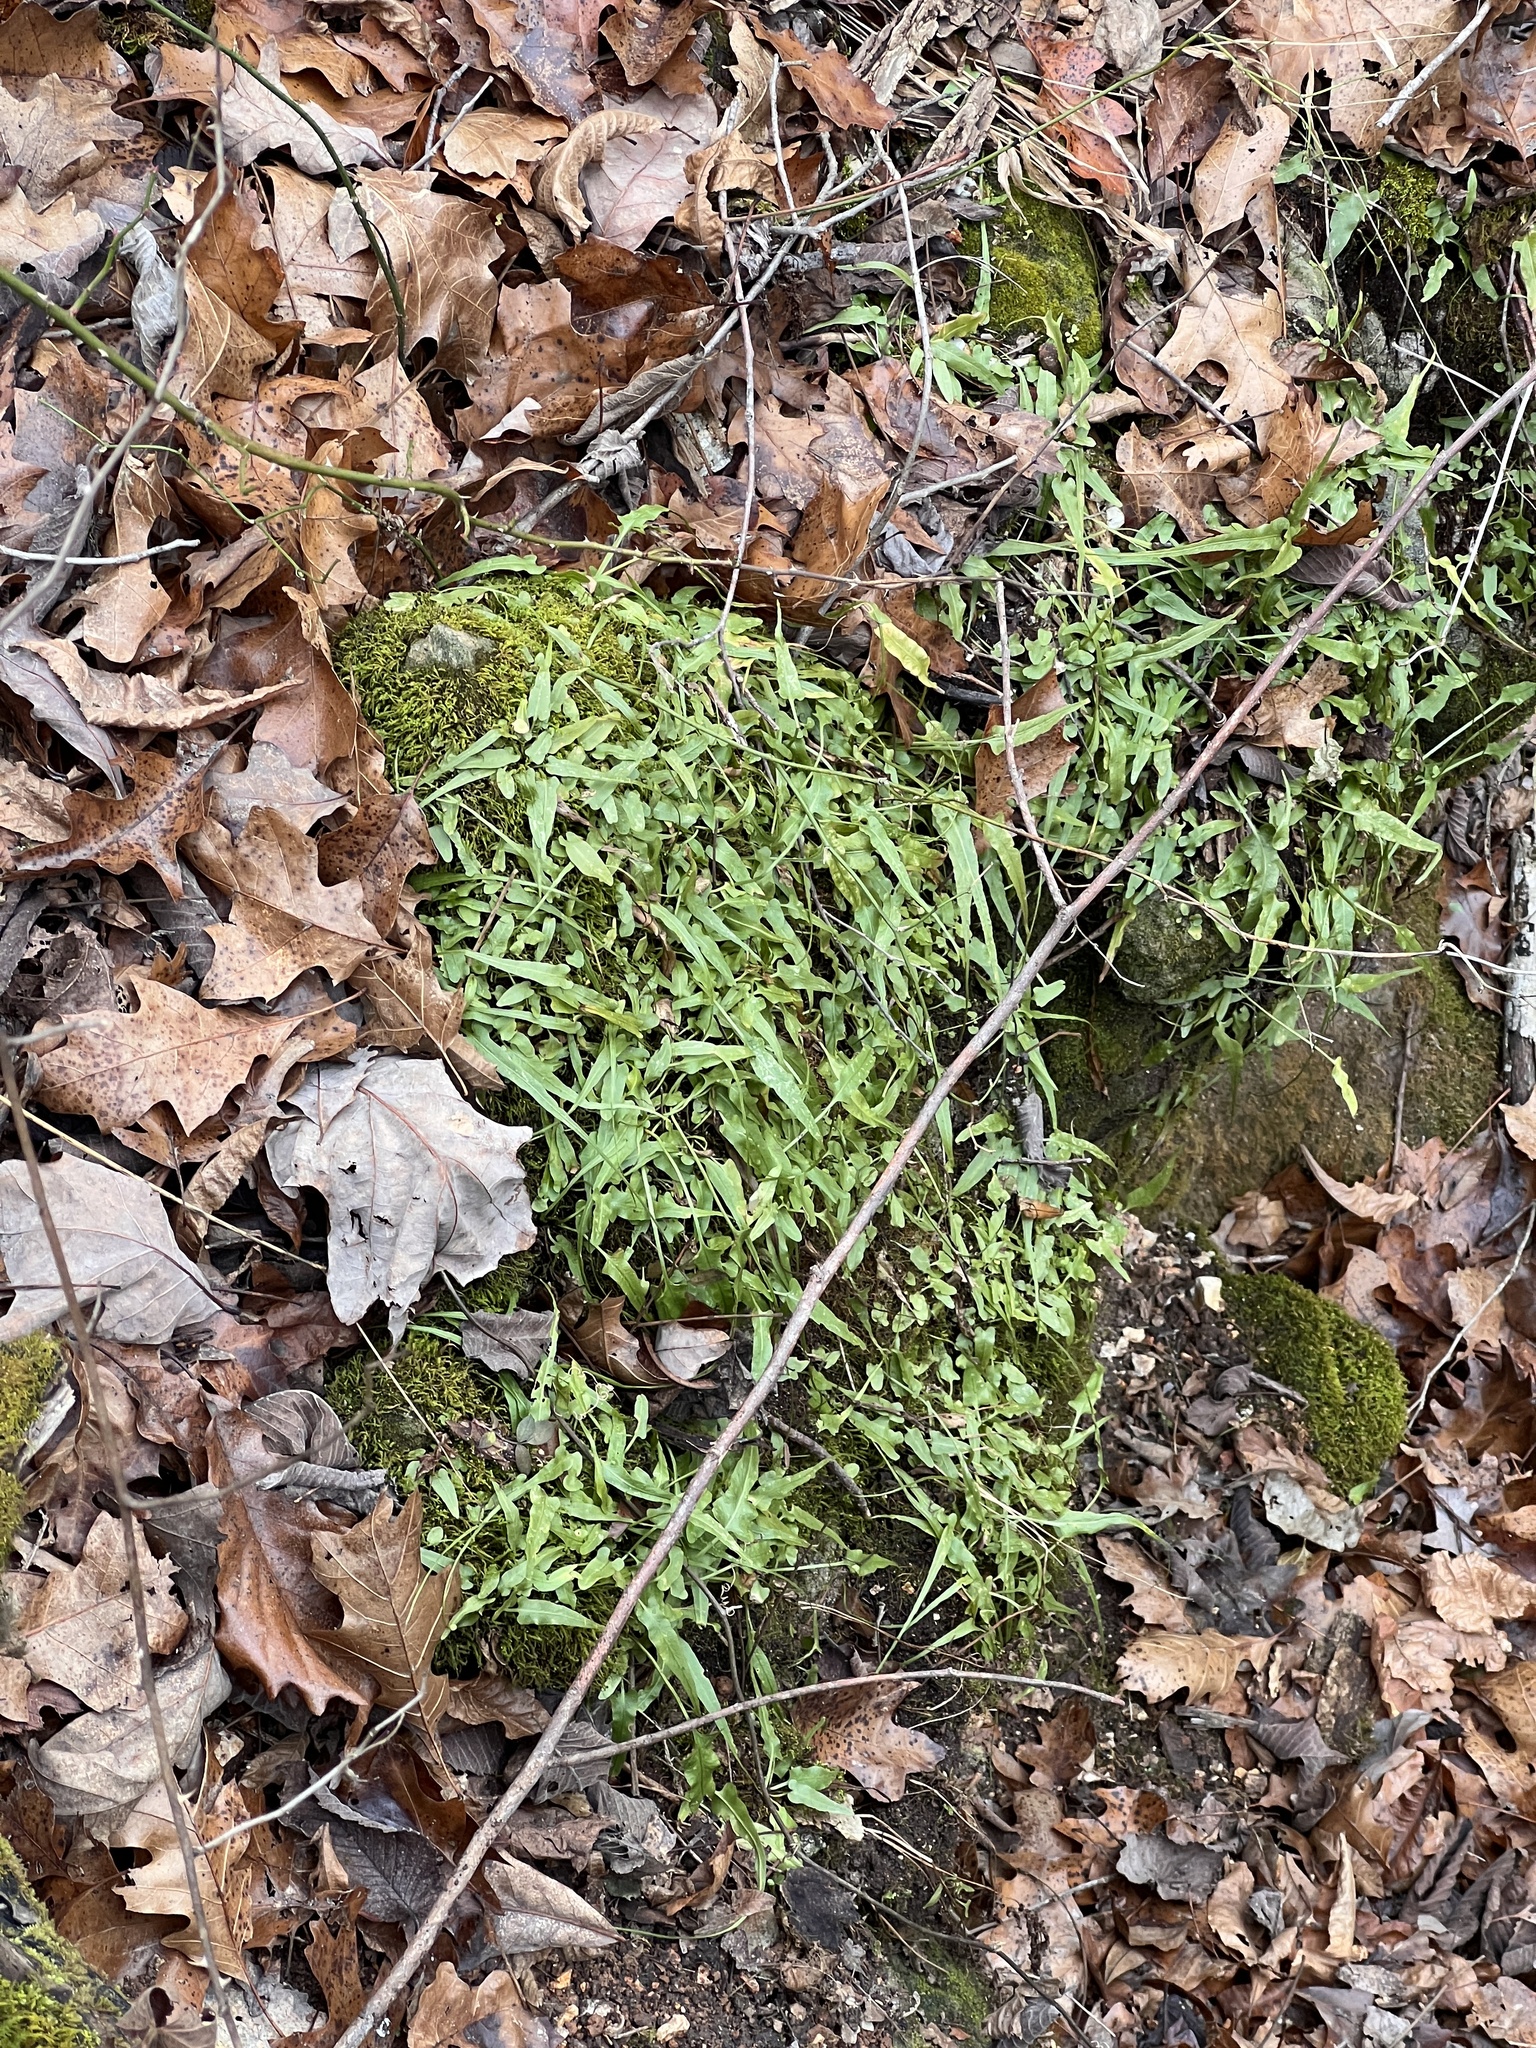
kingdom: Plantae
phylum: Tracheophyta
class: Polypodiopsida
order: Polypodiales
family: Aspleniaceae
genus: Asplenium
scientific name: Asplenium rhizophyllum
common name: Walking fern
